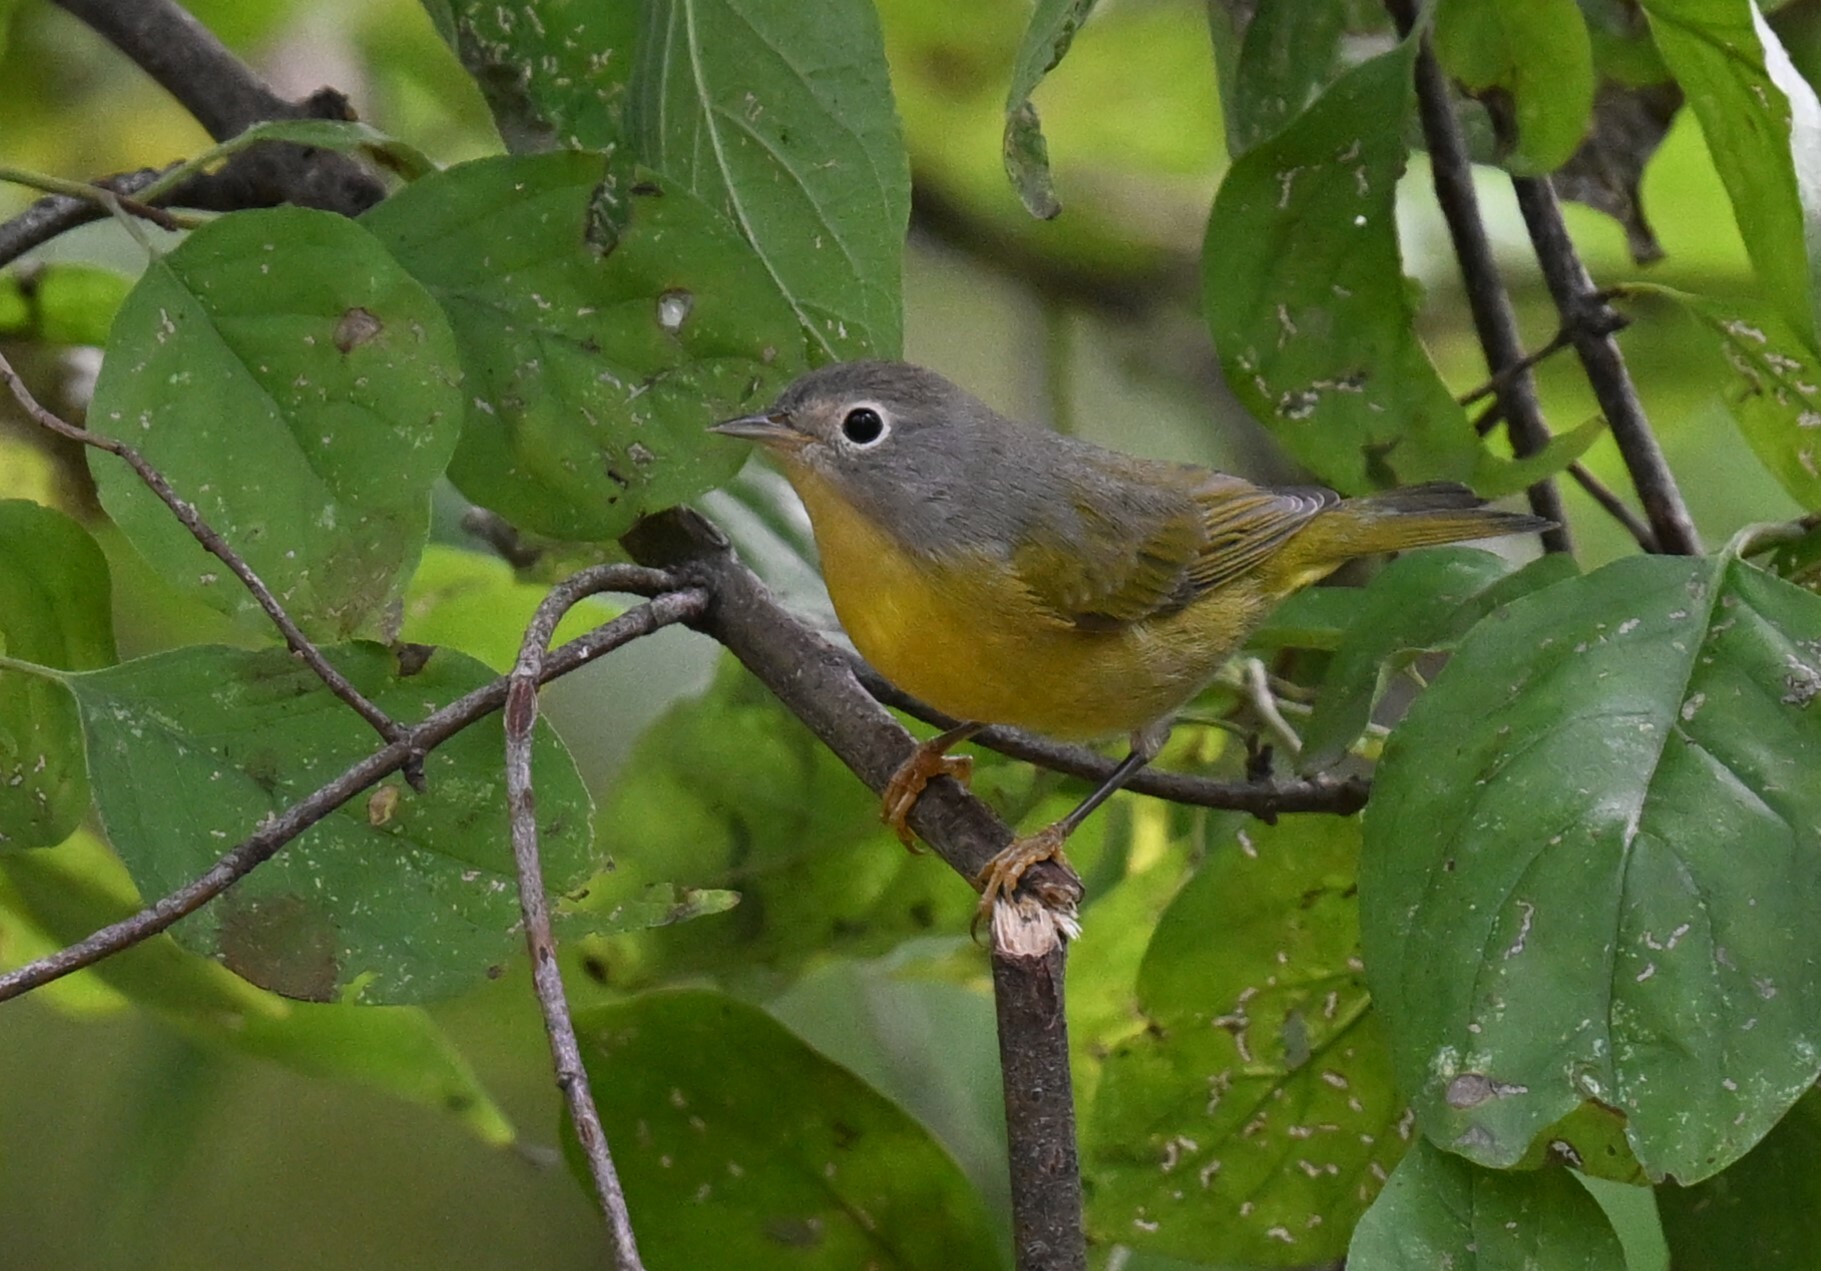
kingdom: Animalia
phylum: Chordata
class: Aves
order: Passeriformes
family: Parulidae
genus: Leiothlypis
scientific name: Leiothlypis ruficapilla
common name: Nashville warbler
